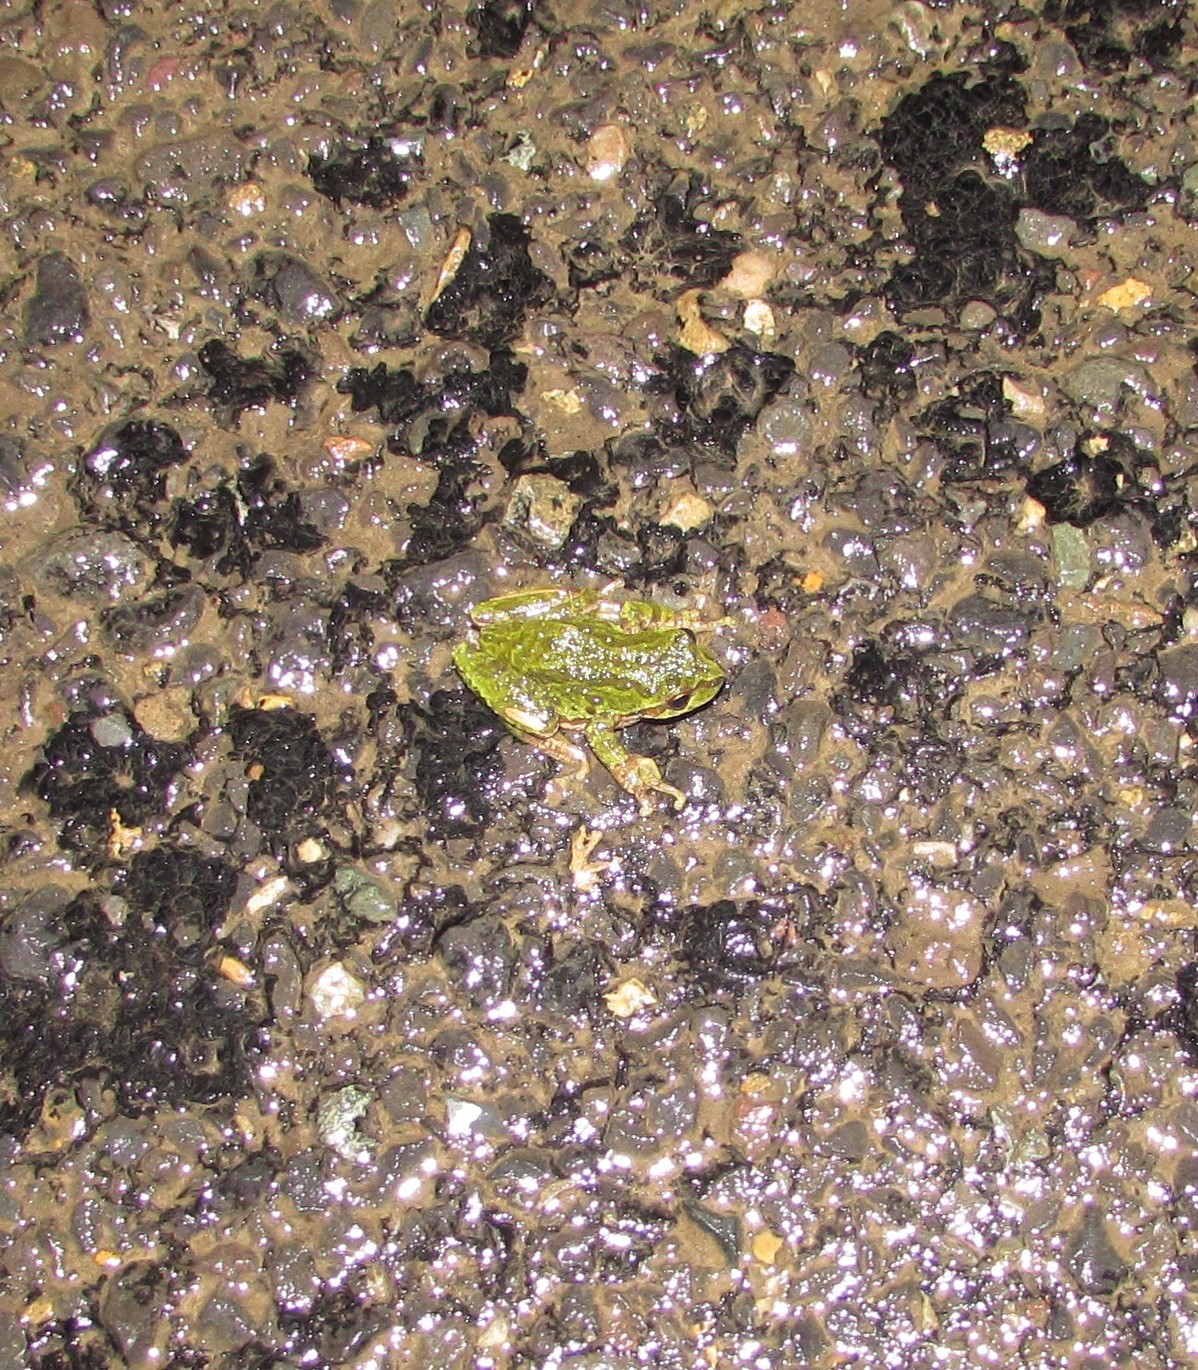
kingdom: Animalia
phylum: Chordata
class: Amphibia
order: Anura
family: Hylidae
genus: Pseudacris
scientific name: Pseudacris regilla
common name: Pacific chorus frog
